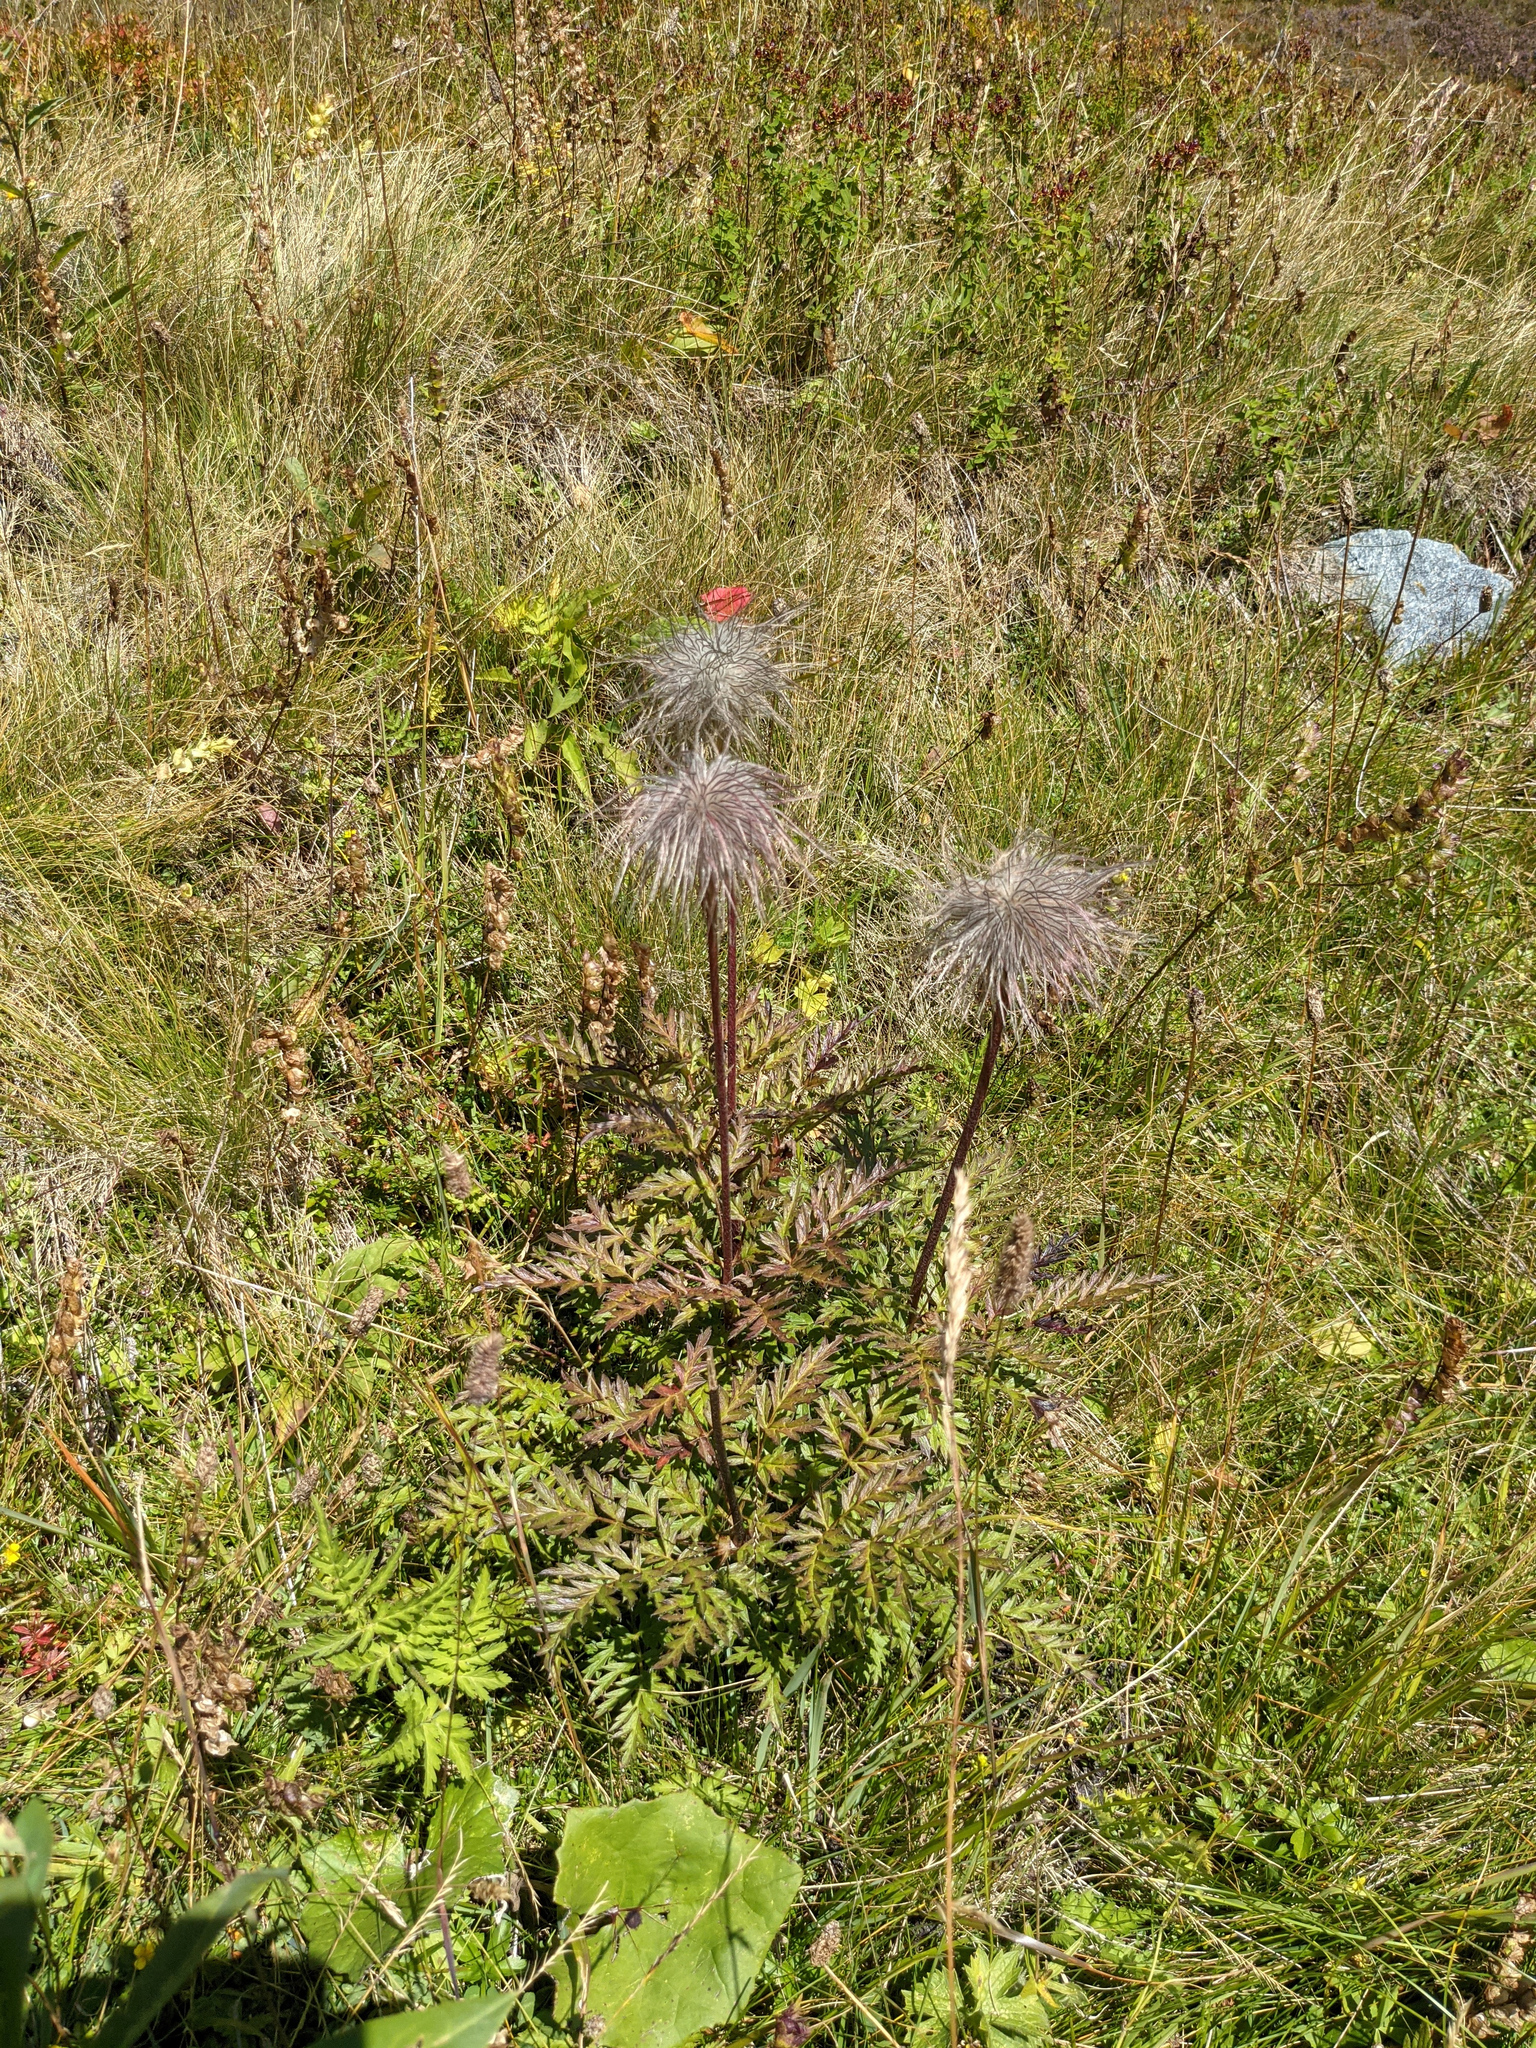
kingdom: Plantae
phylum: Tracheophyta
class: Magnoliopsida
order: Ranunculales
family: Ranunculaceae
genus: Pulsatilla
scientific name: Pulsatilla alpina
